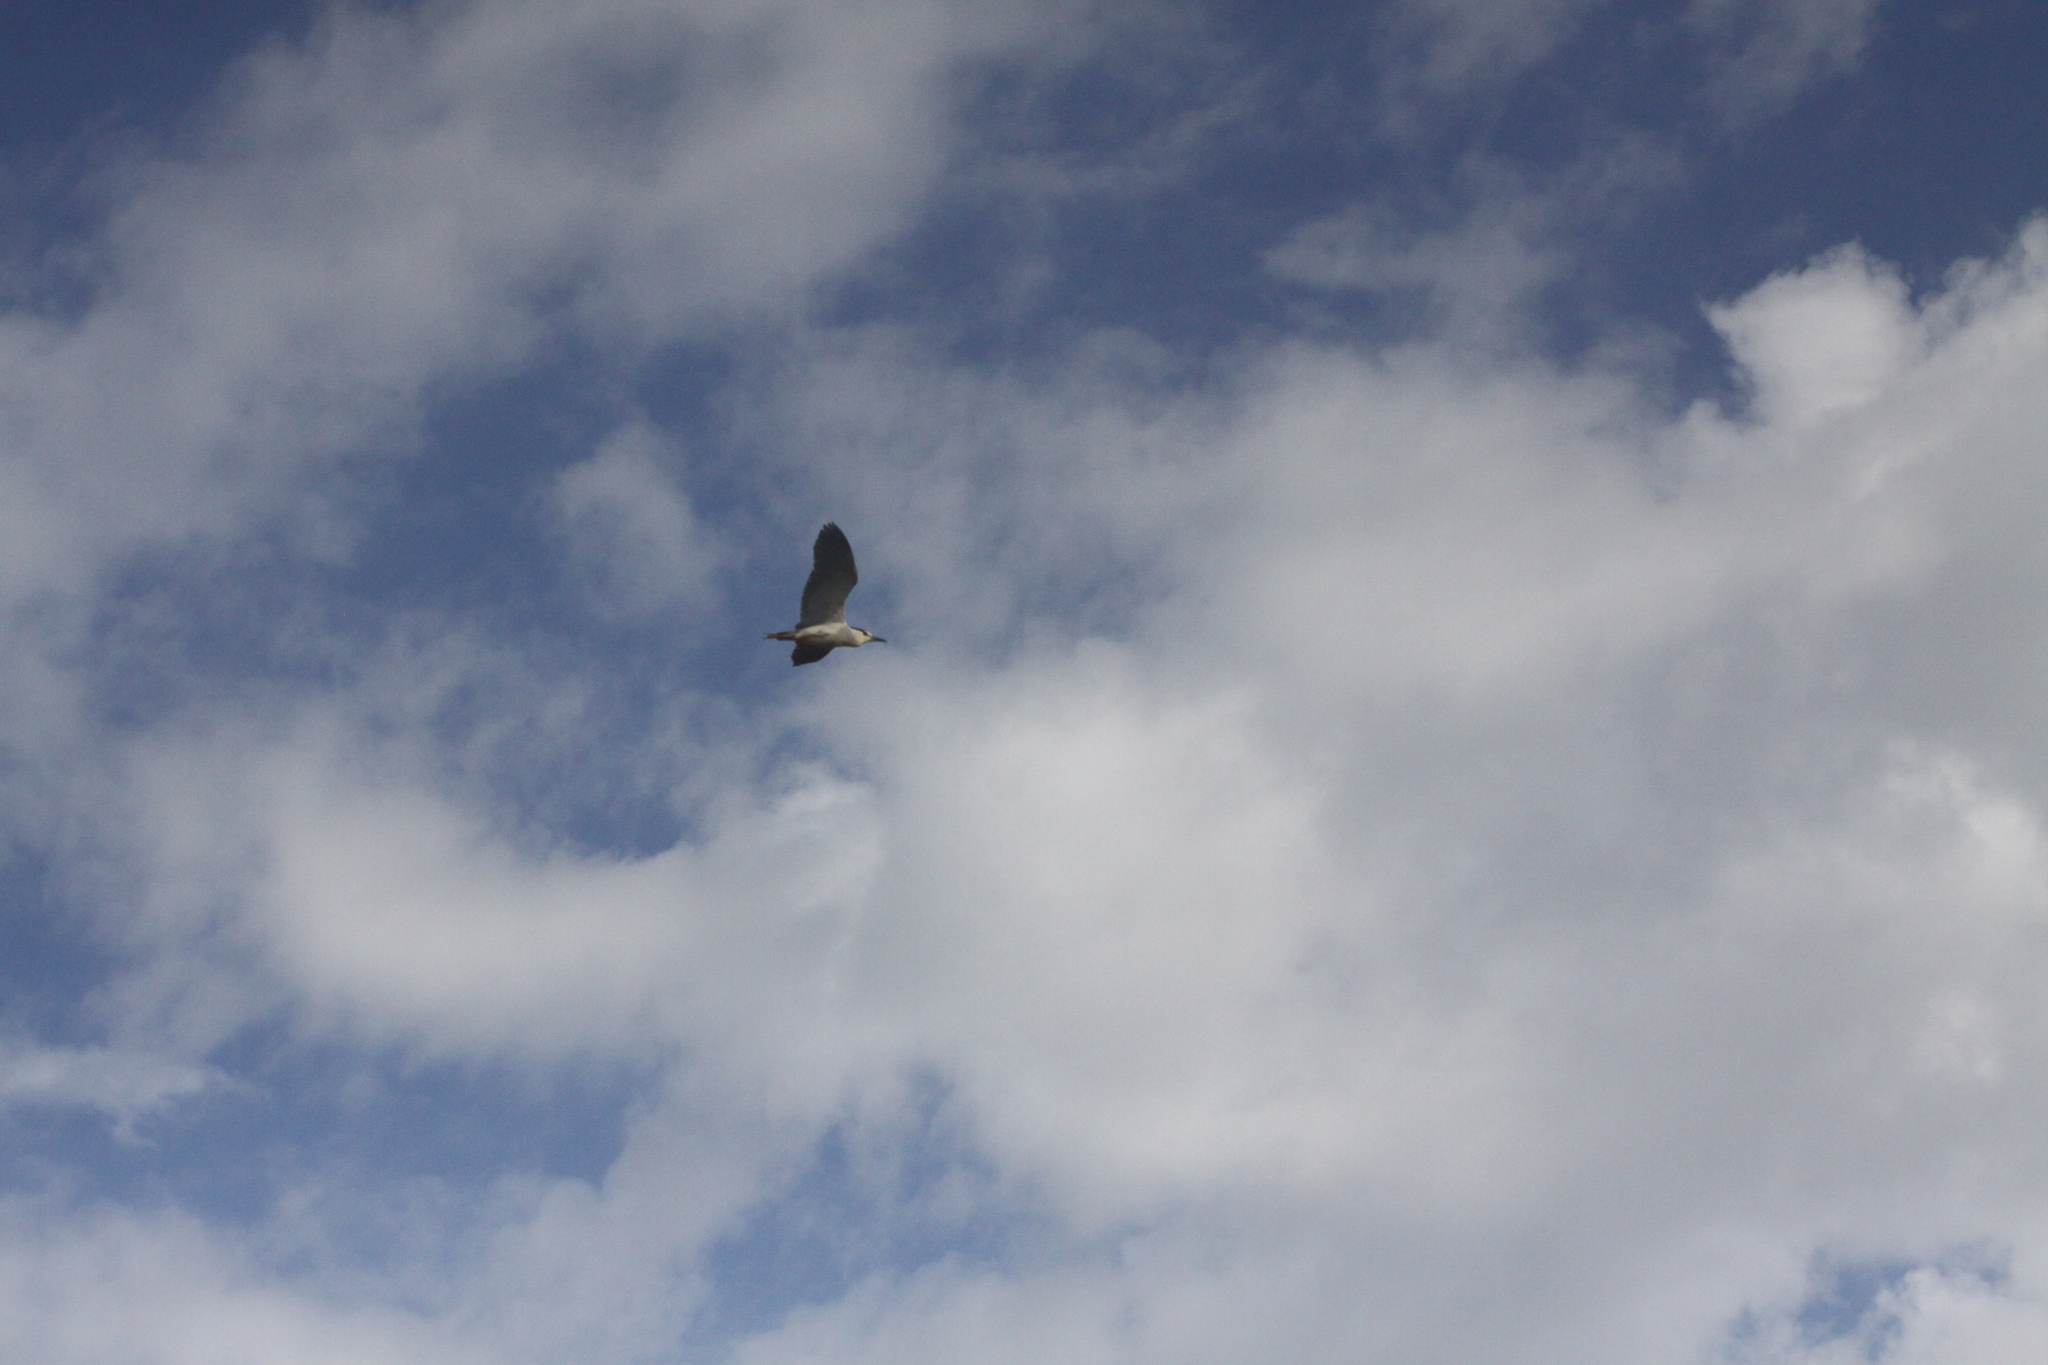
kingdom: Animalia
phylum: Chordata
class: Aves
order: Pelecaniformes
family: Ardeidae
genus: Nycticorax
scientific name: Nycticorax nycticorax
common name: Black-crowned night heron
